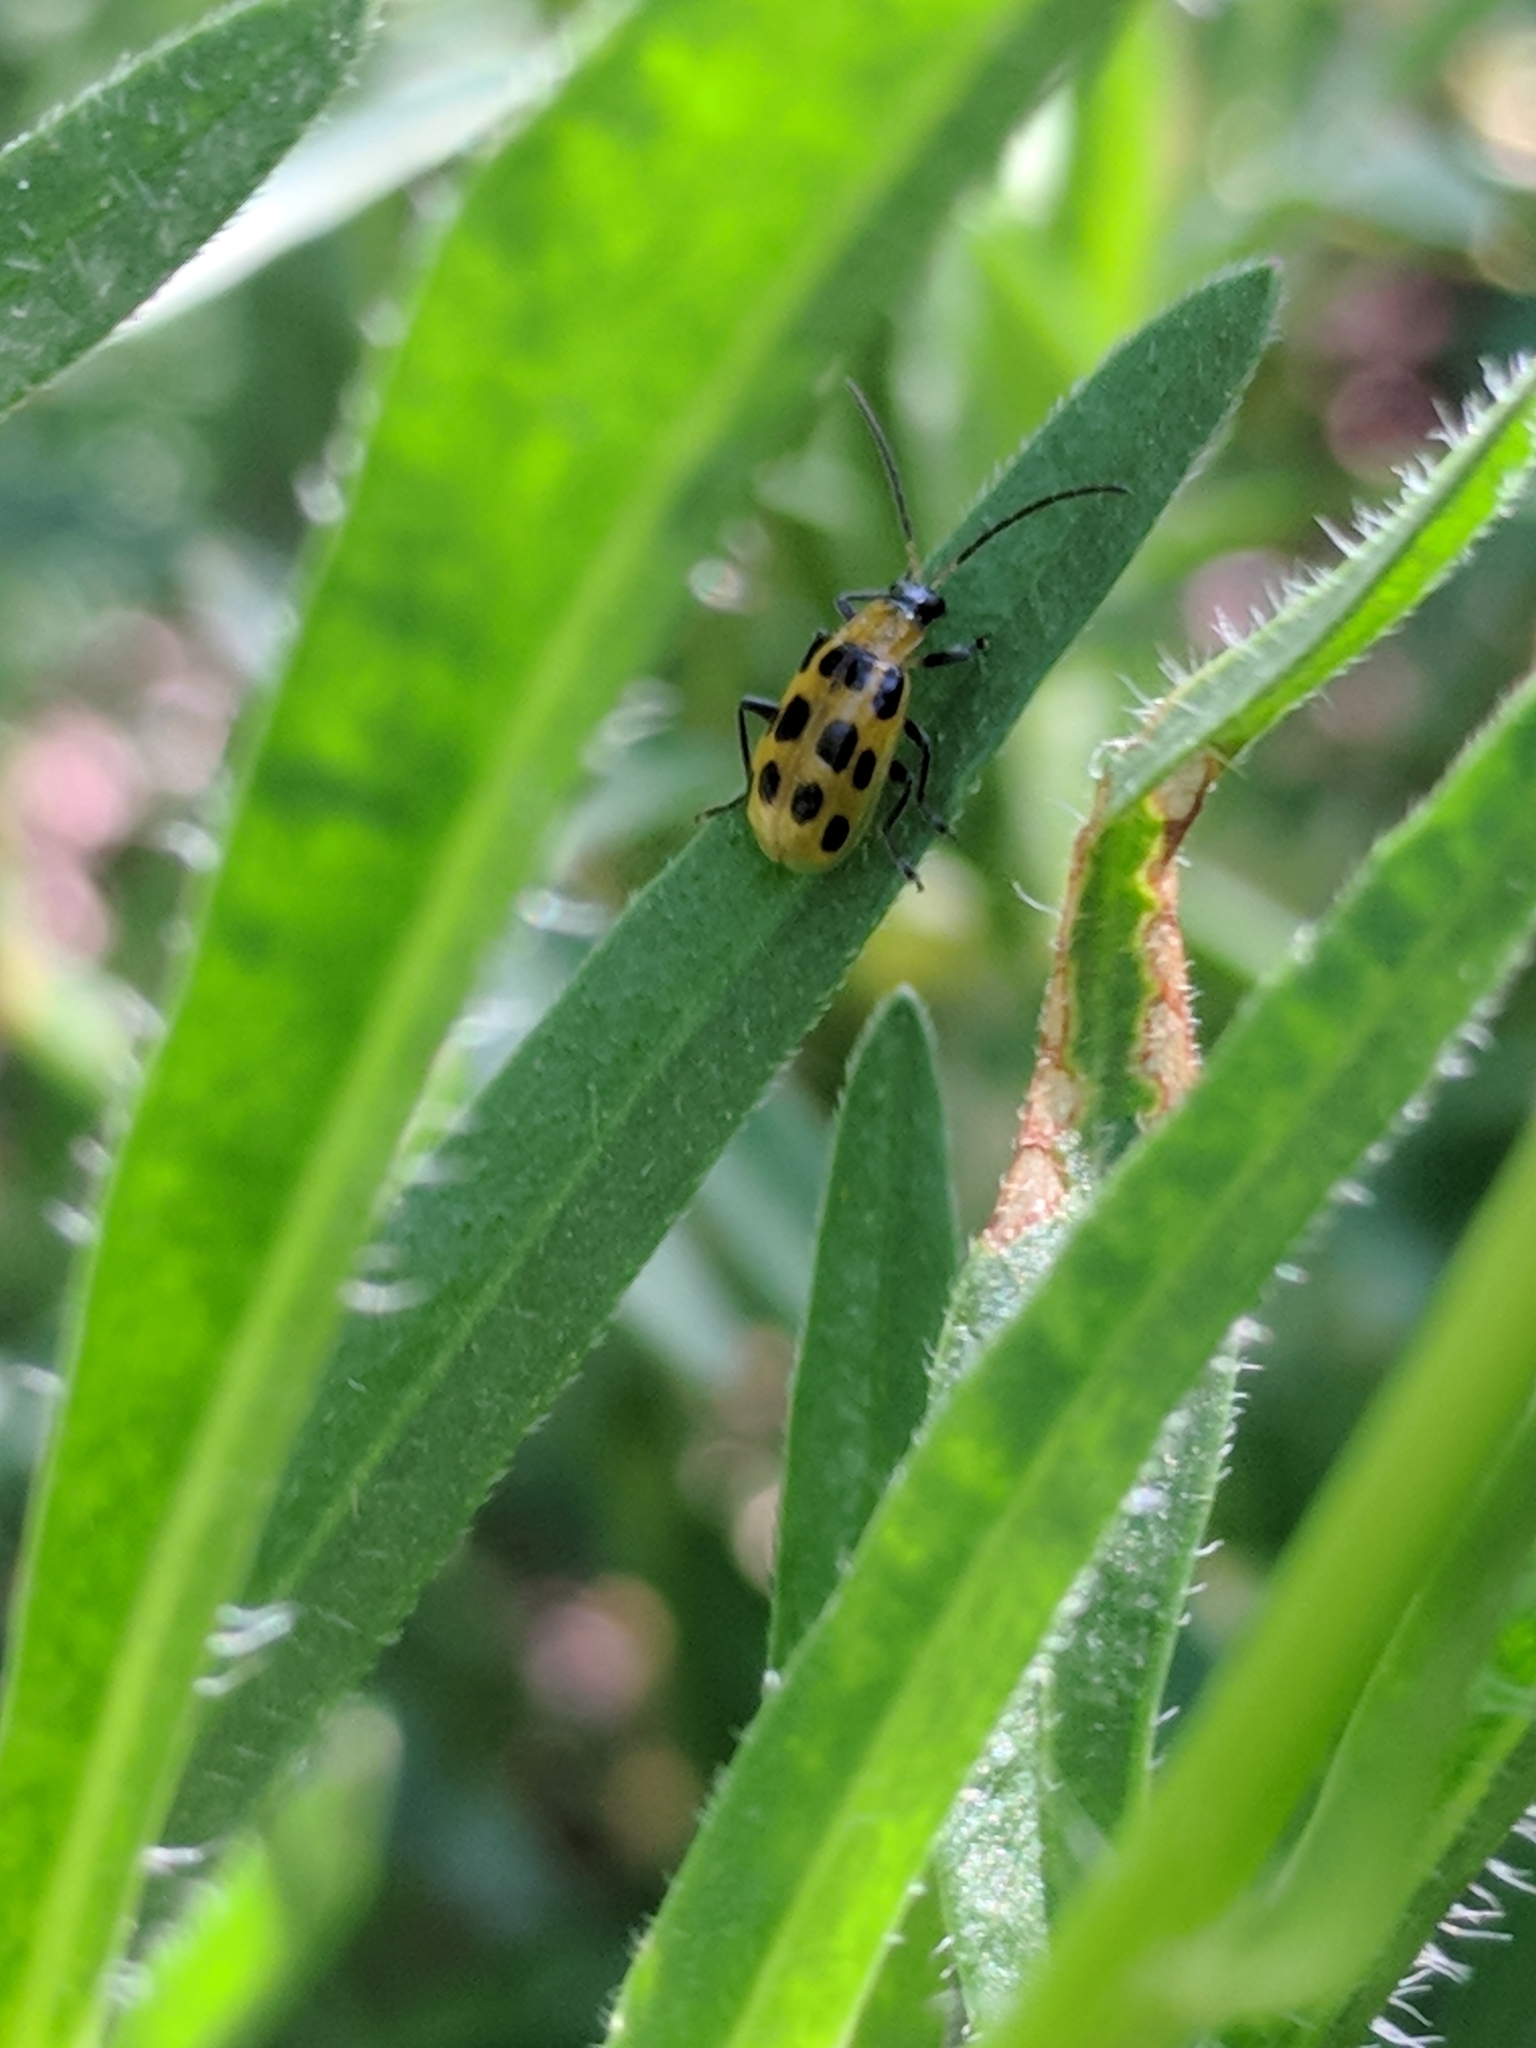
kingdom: Animalia
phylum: Arthropoda
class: Insecta
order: Coleoptera
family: Chrysomelidae
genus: Diabrotica
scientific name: Diabrotica undecimpunctata
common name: Spotted cucumber beetle
